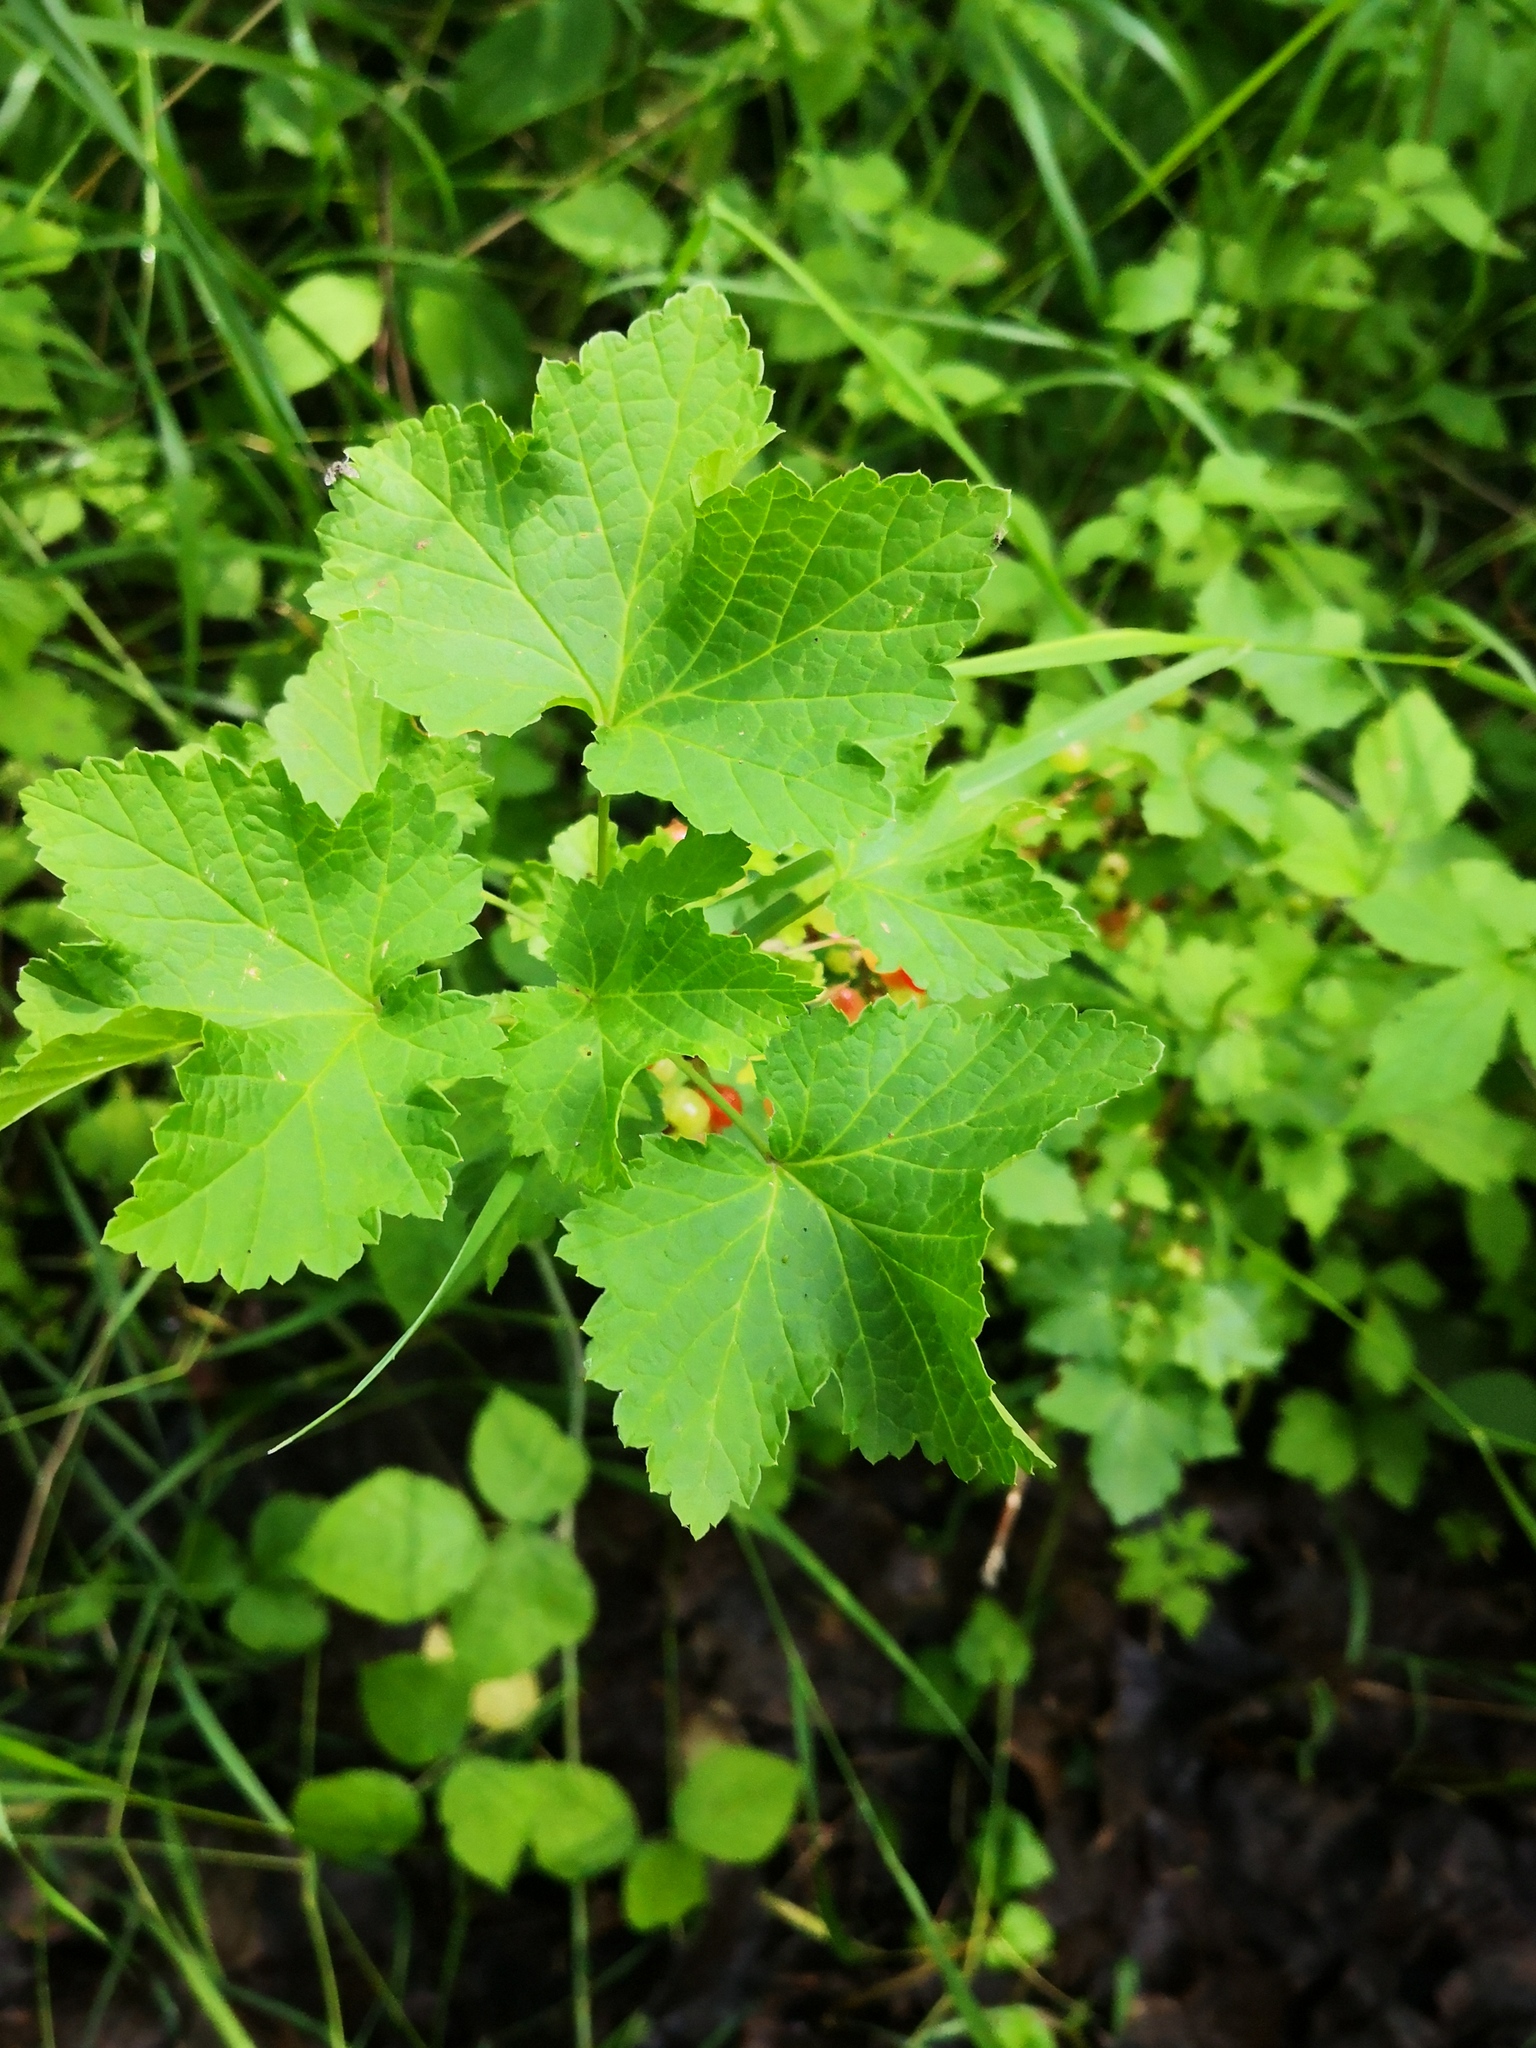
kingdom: Plantae
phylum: Tracheophyta
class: Magnoliopsida
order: Saxifragales
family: Grossulariaceae
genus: Ribes
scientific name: Ribes rubrum
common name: Red currant
